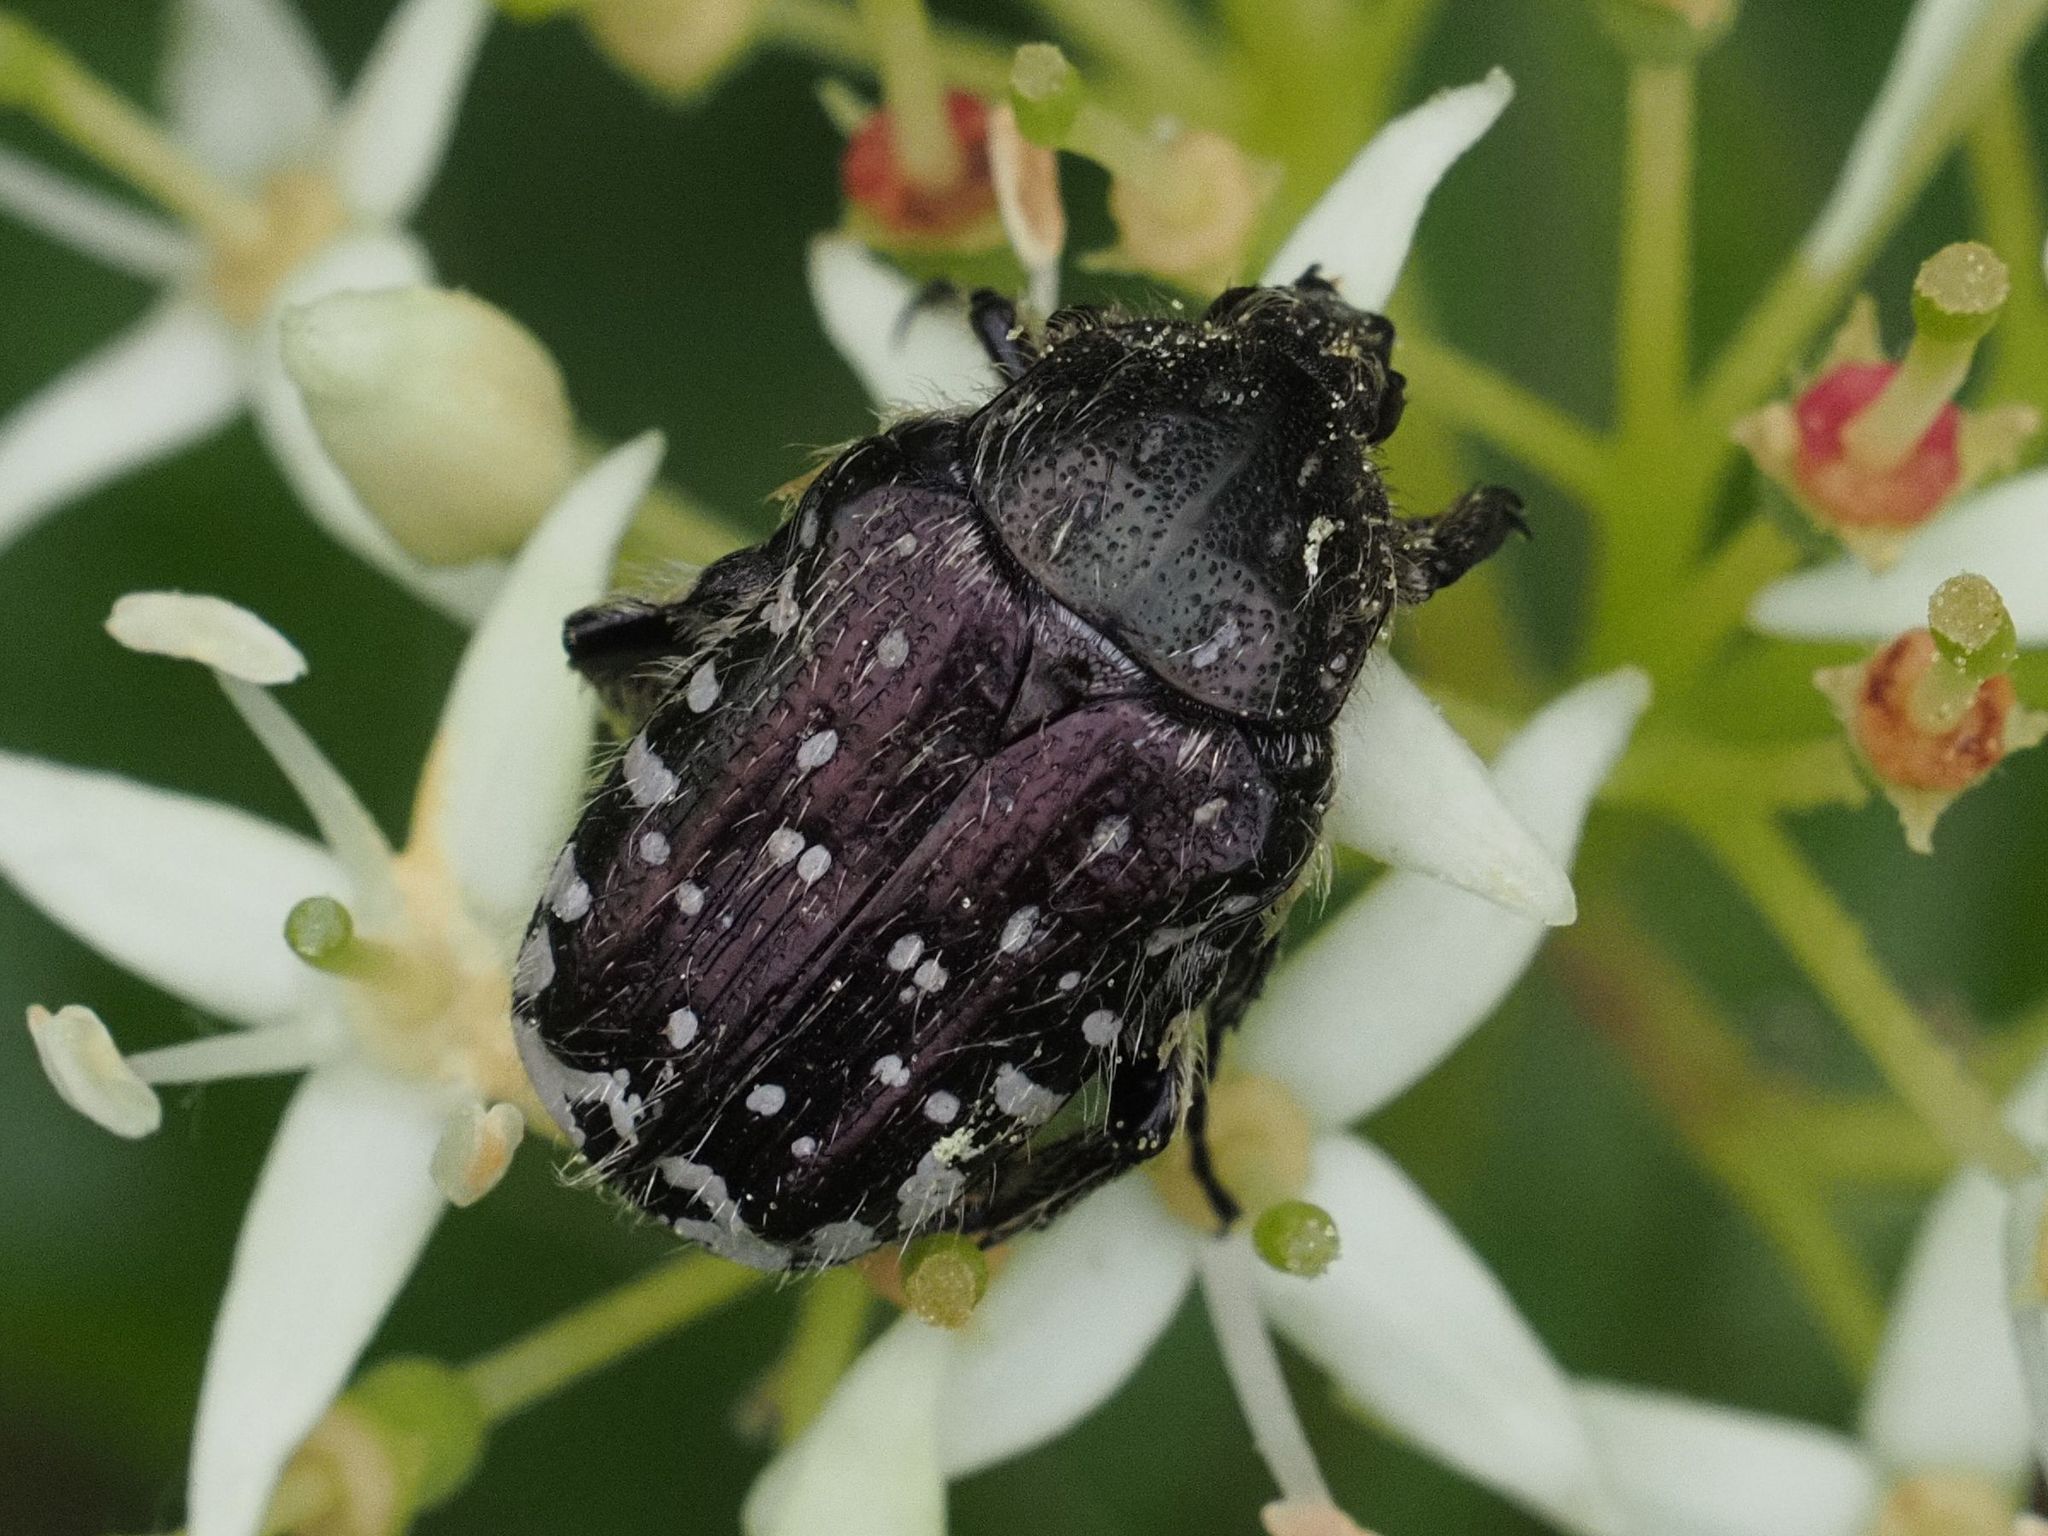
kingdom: Animalia
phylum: Arthropoda
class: Insecta
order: Coleoptera
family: Scarabaeidae
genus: Oxythyrea
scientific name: Oxythyrea funesta
